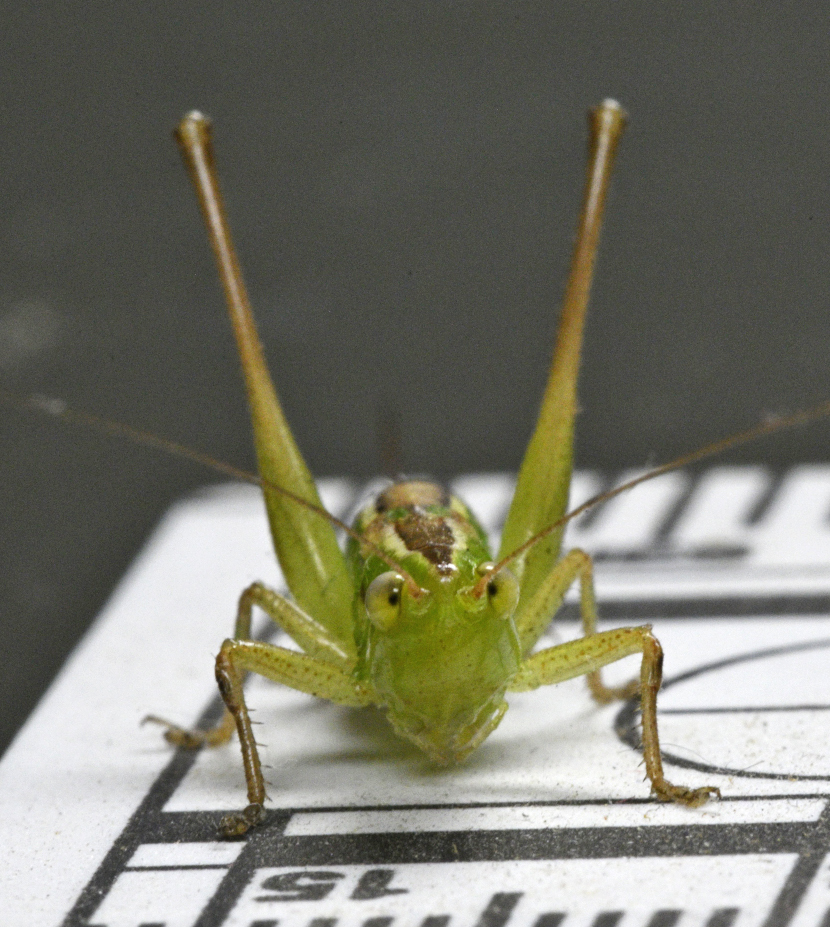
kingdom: Animalia
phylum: Arthropoda
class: Insecta
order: Orthoptera
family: Tettigoniidae
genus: Conocephalus
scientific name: Conocephalus bilineatus
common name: Small meadow katydid
